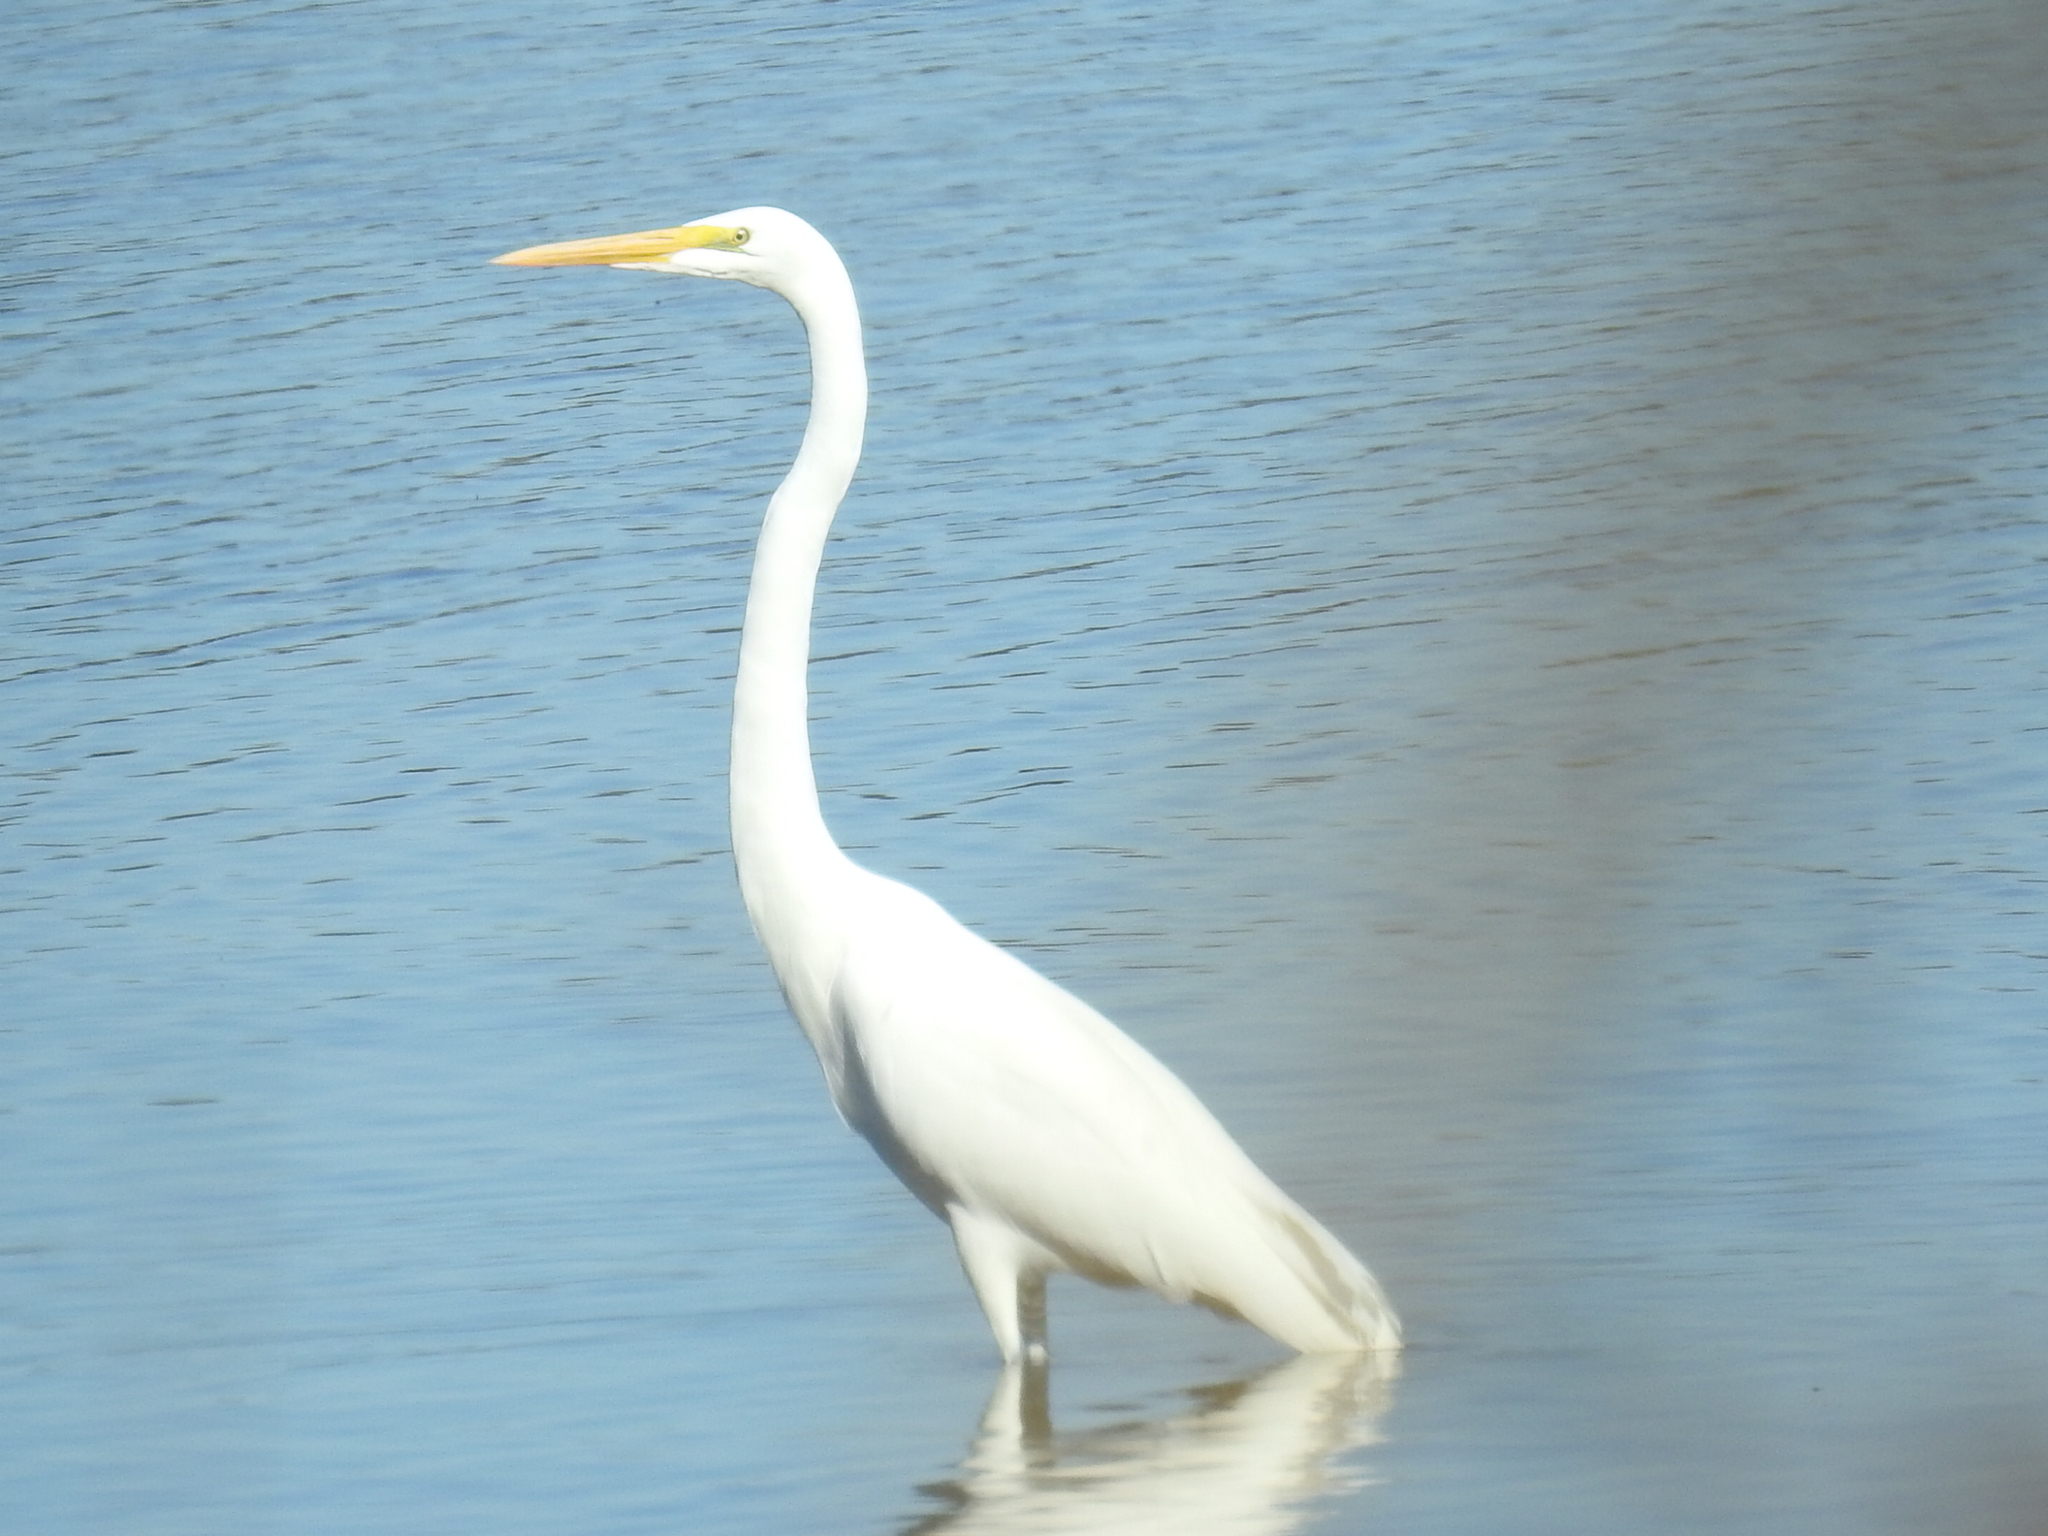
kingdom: Animalia
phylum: Chordata
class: Aves
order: Pelecaniformes
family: Ardeidae
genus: Ardea
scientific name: Ardea alba
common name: Great egret
